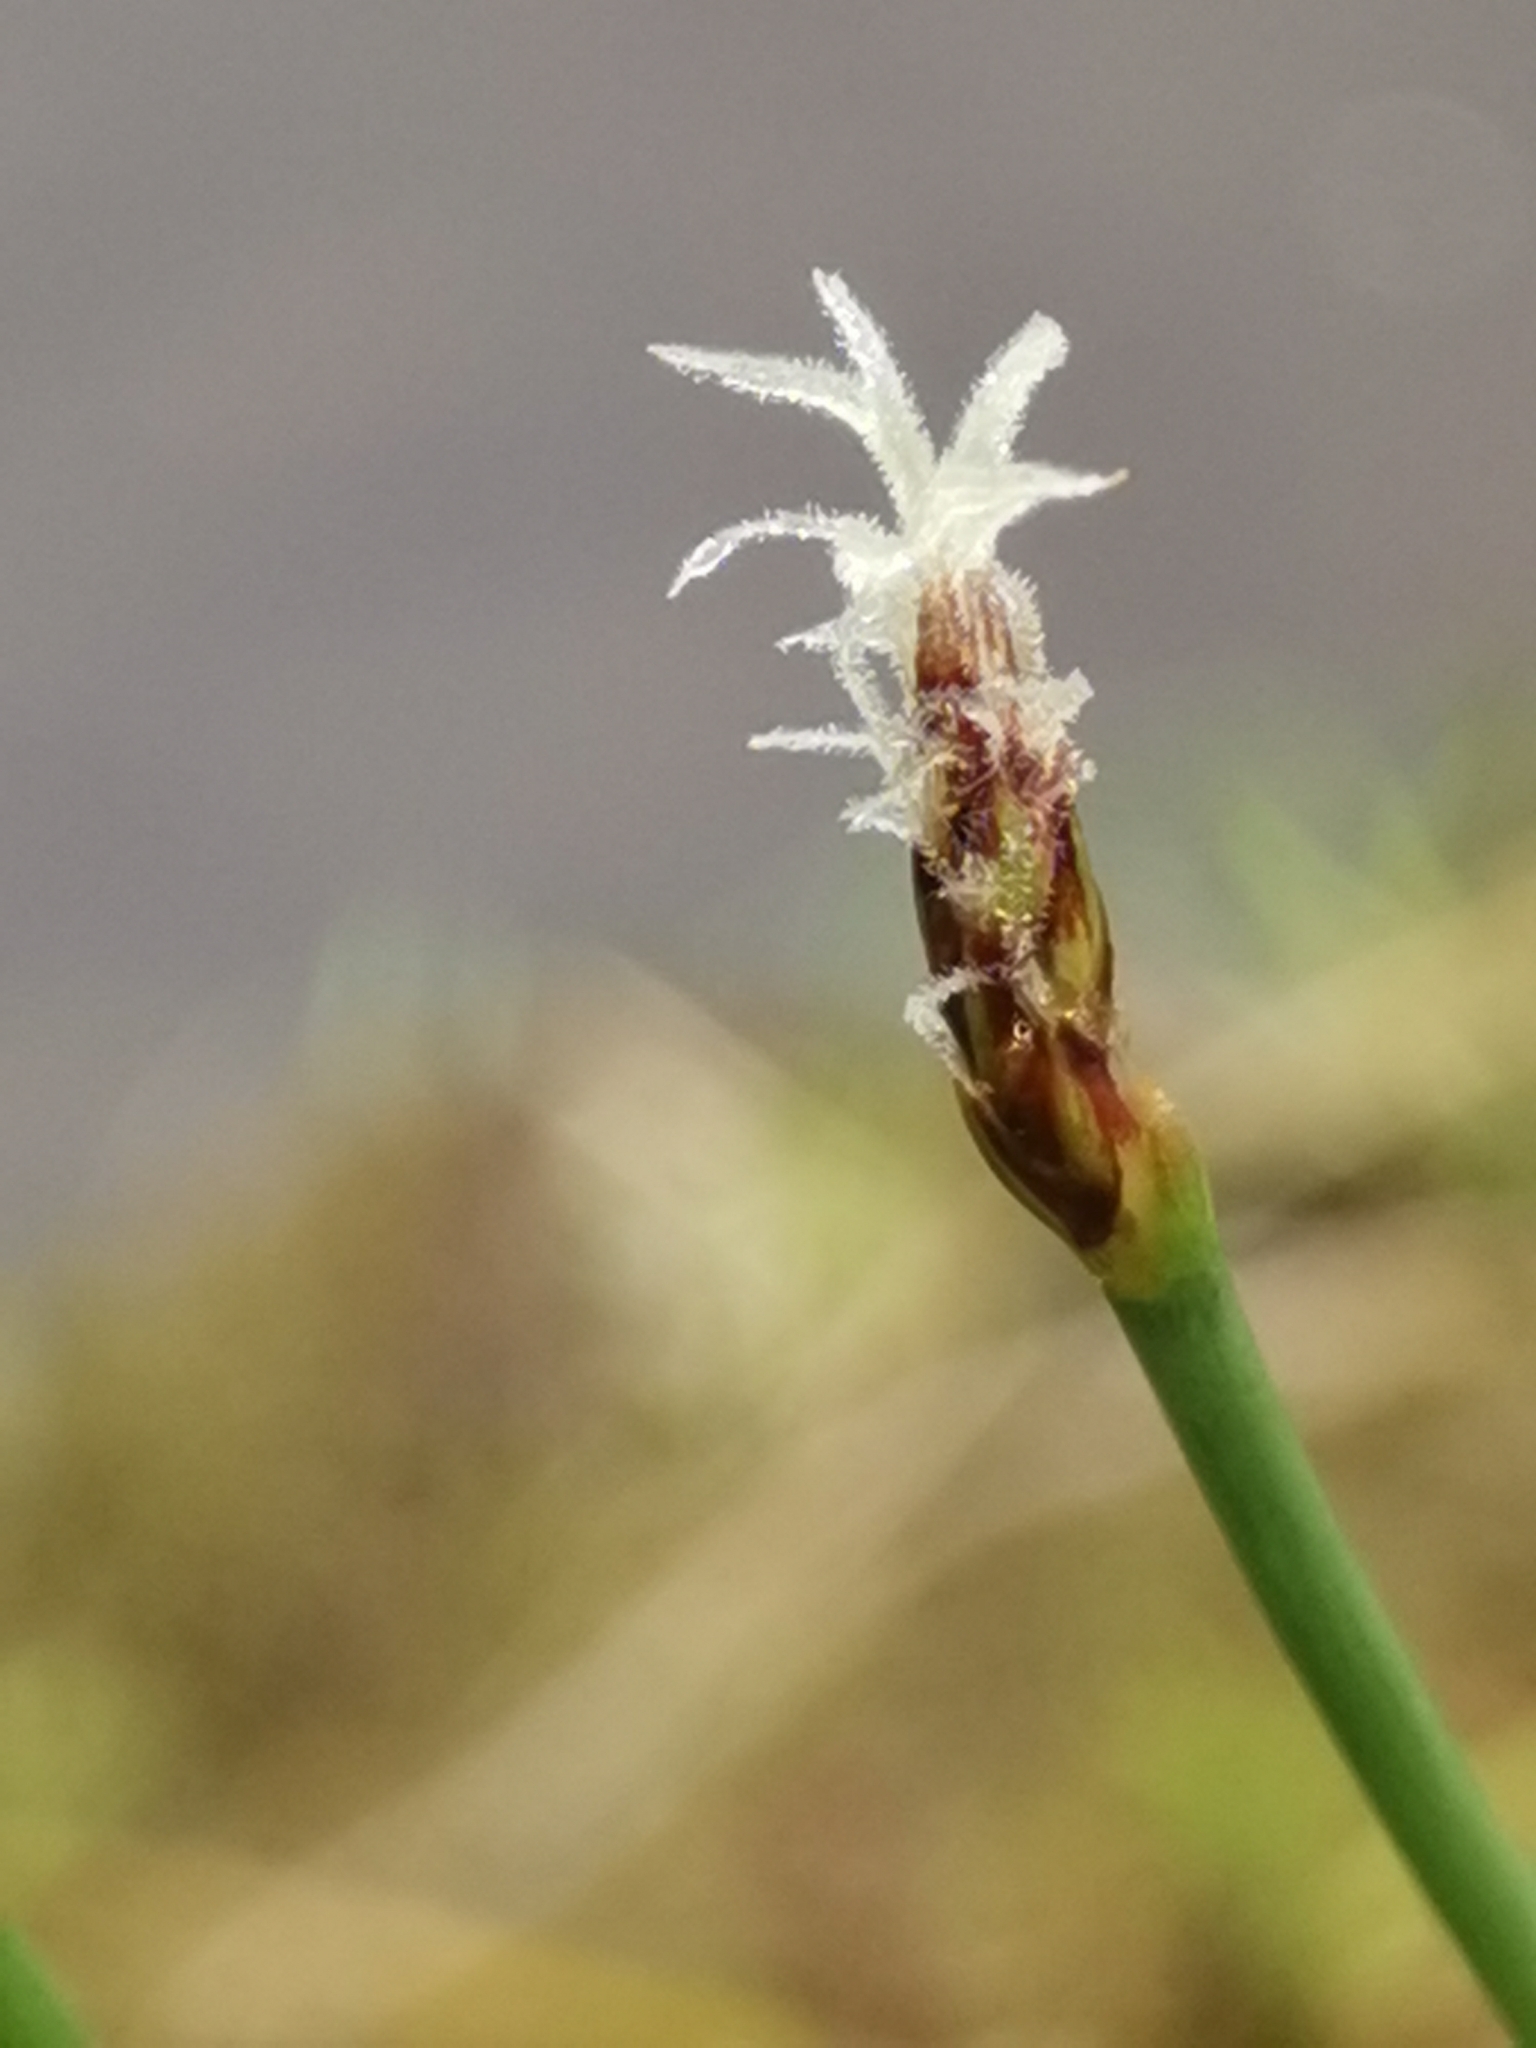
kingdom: Plantae
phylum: Tracheophyta
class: Liliopsida
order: Poales
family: Cyperaceae
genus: Eleocharis
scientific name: Eleocharis multicaulis
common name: Many-stalked spike-rush
